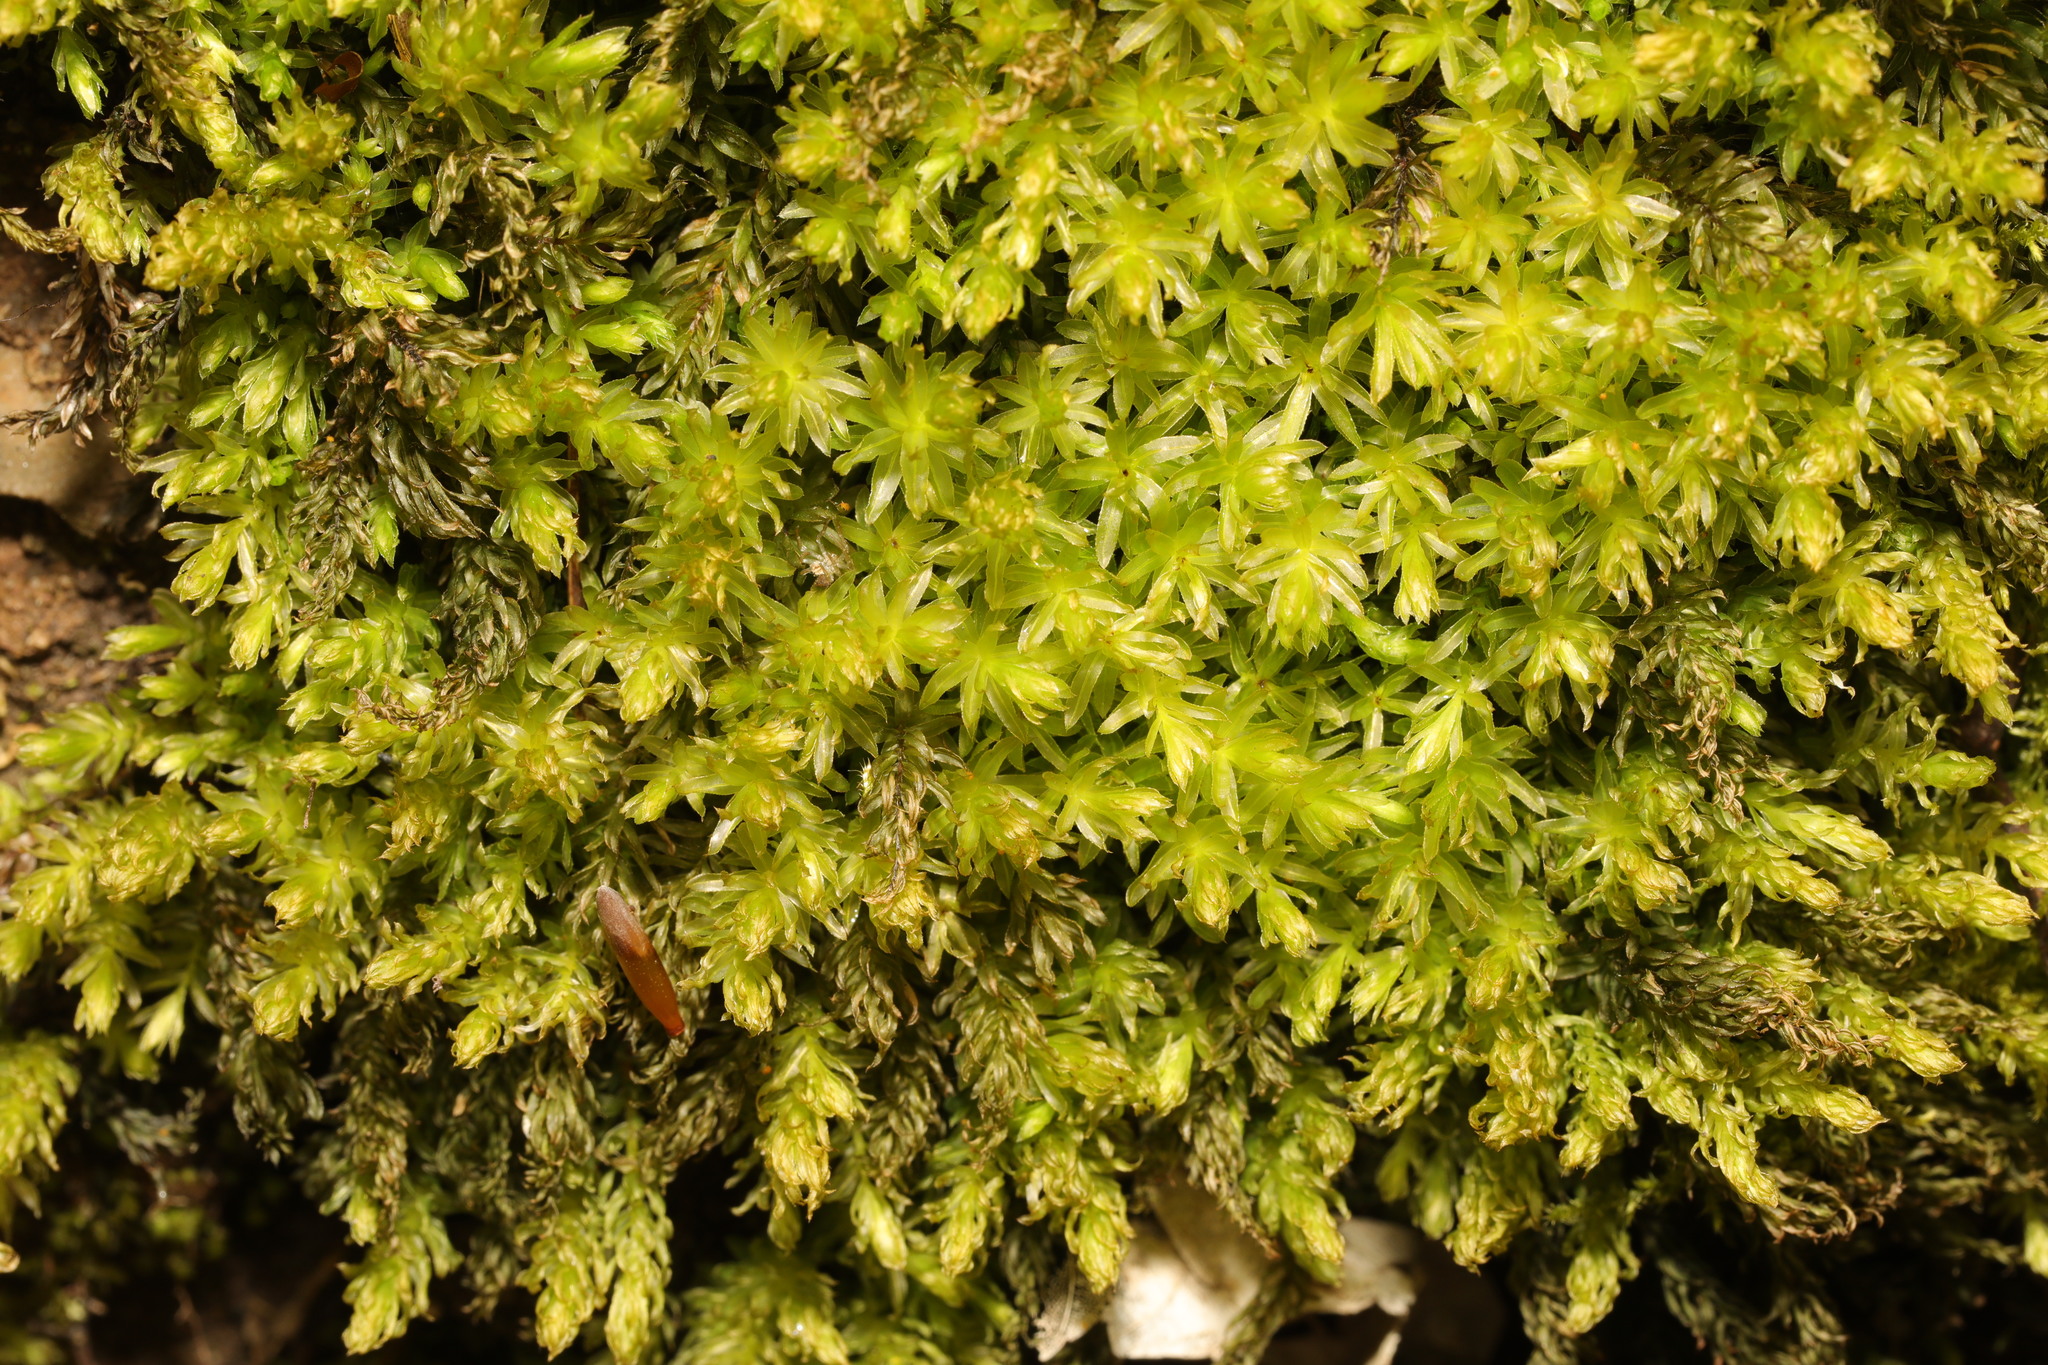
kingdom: Plantae
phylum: Bryophyta
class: Bryopsida
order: Bryales
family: Mniaceae
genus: Mnium
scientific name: Mnium hornum
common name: Swan's-neck leafy moss
